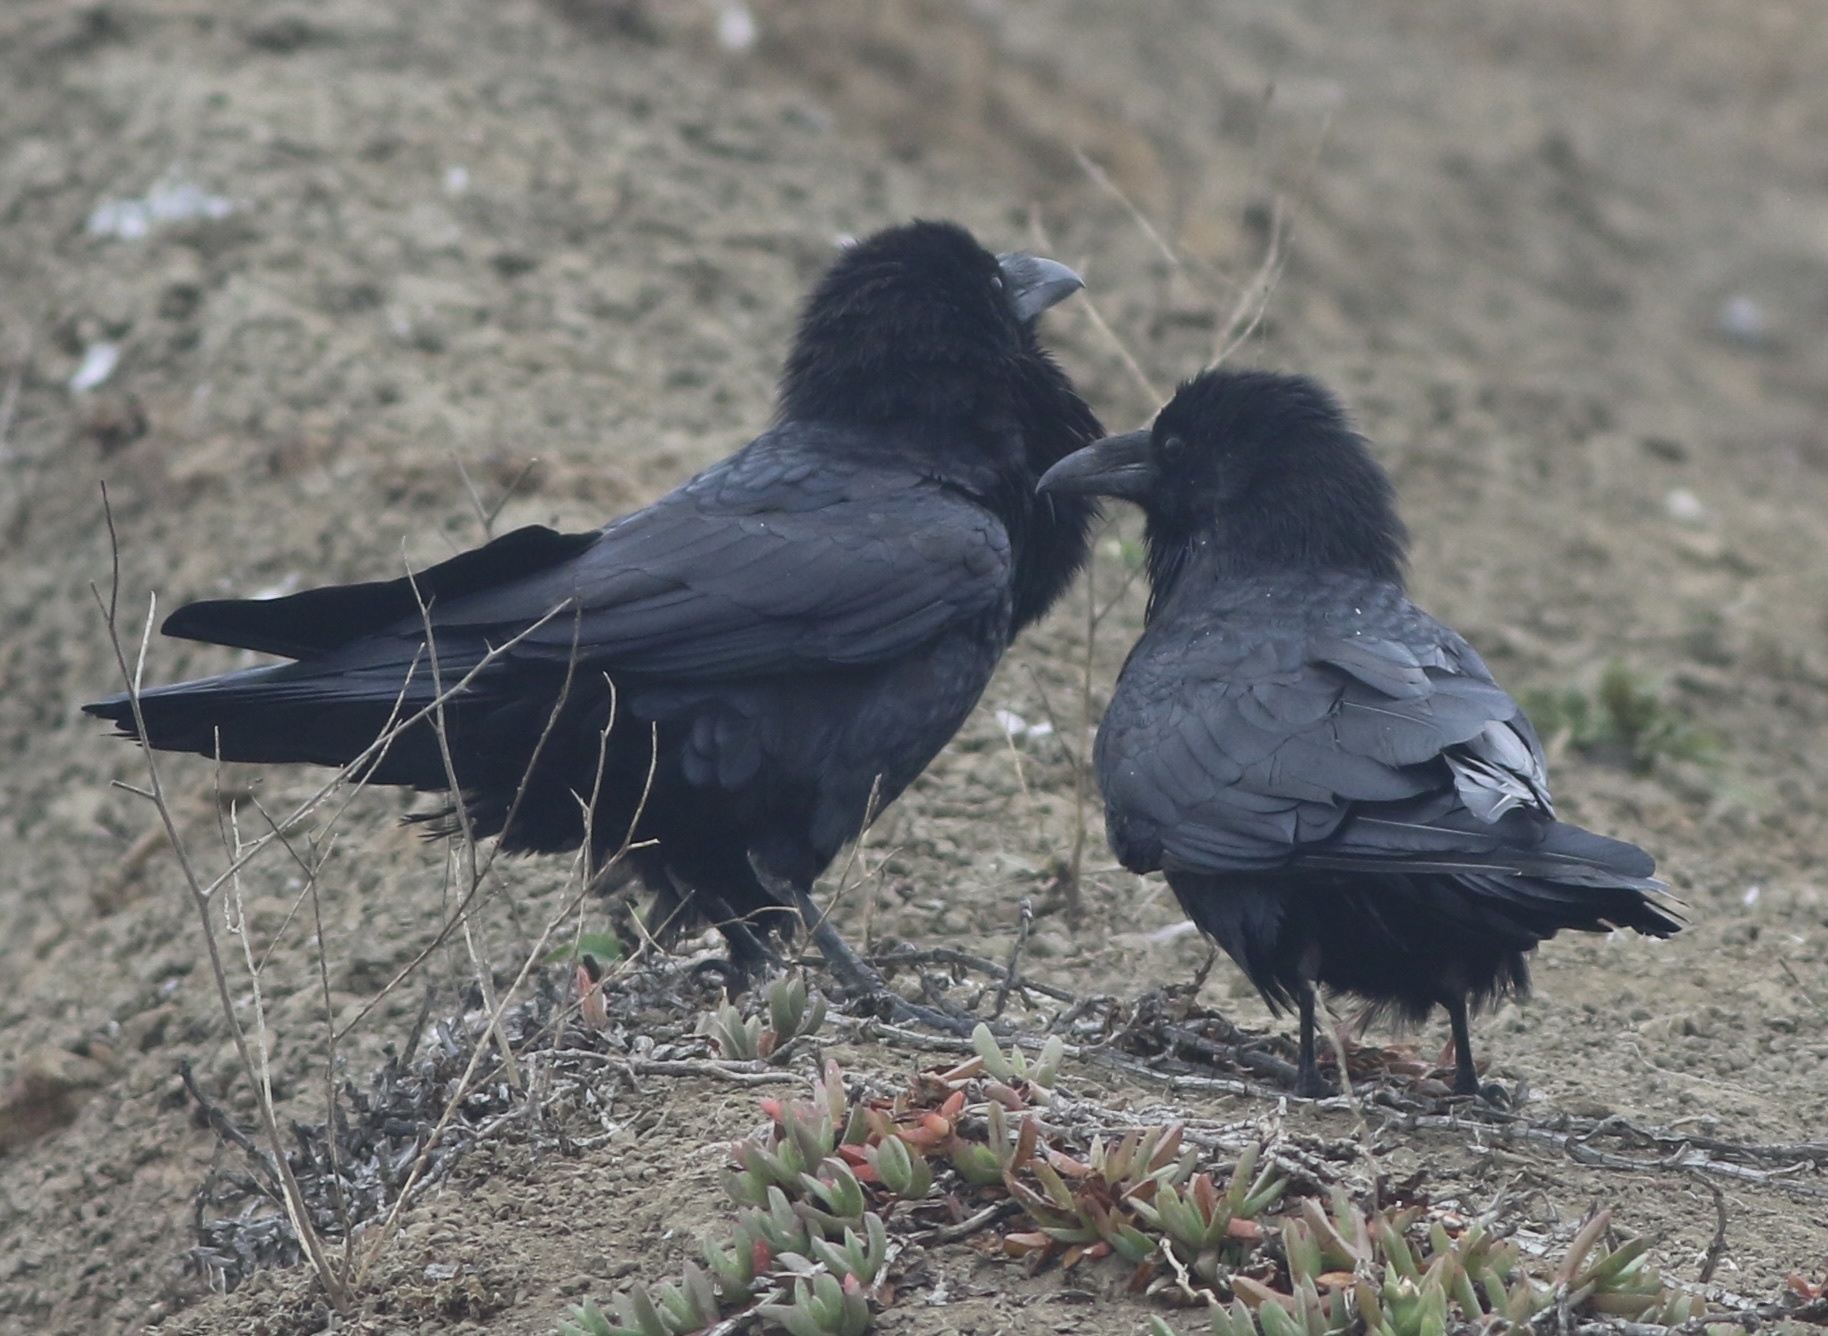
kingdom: Animalia
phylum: Chordata
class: Aves
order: Passeriformes
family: Corvidae
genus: Corvus
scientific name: Corvus corax
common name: Common raven
